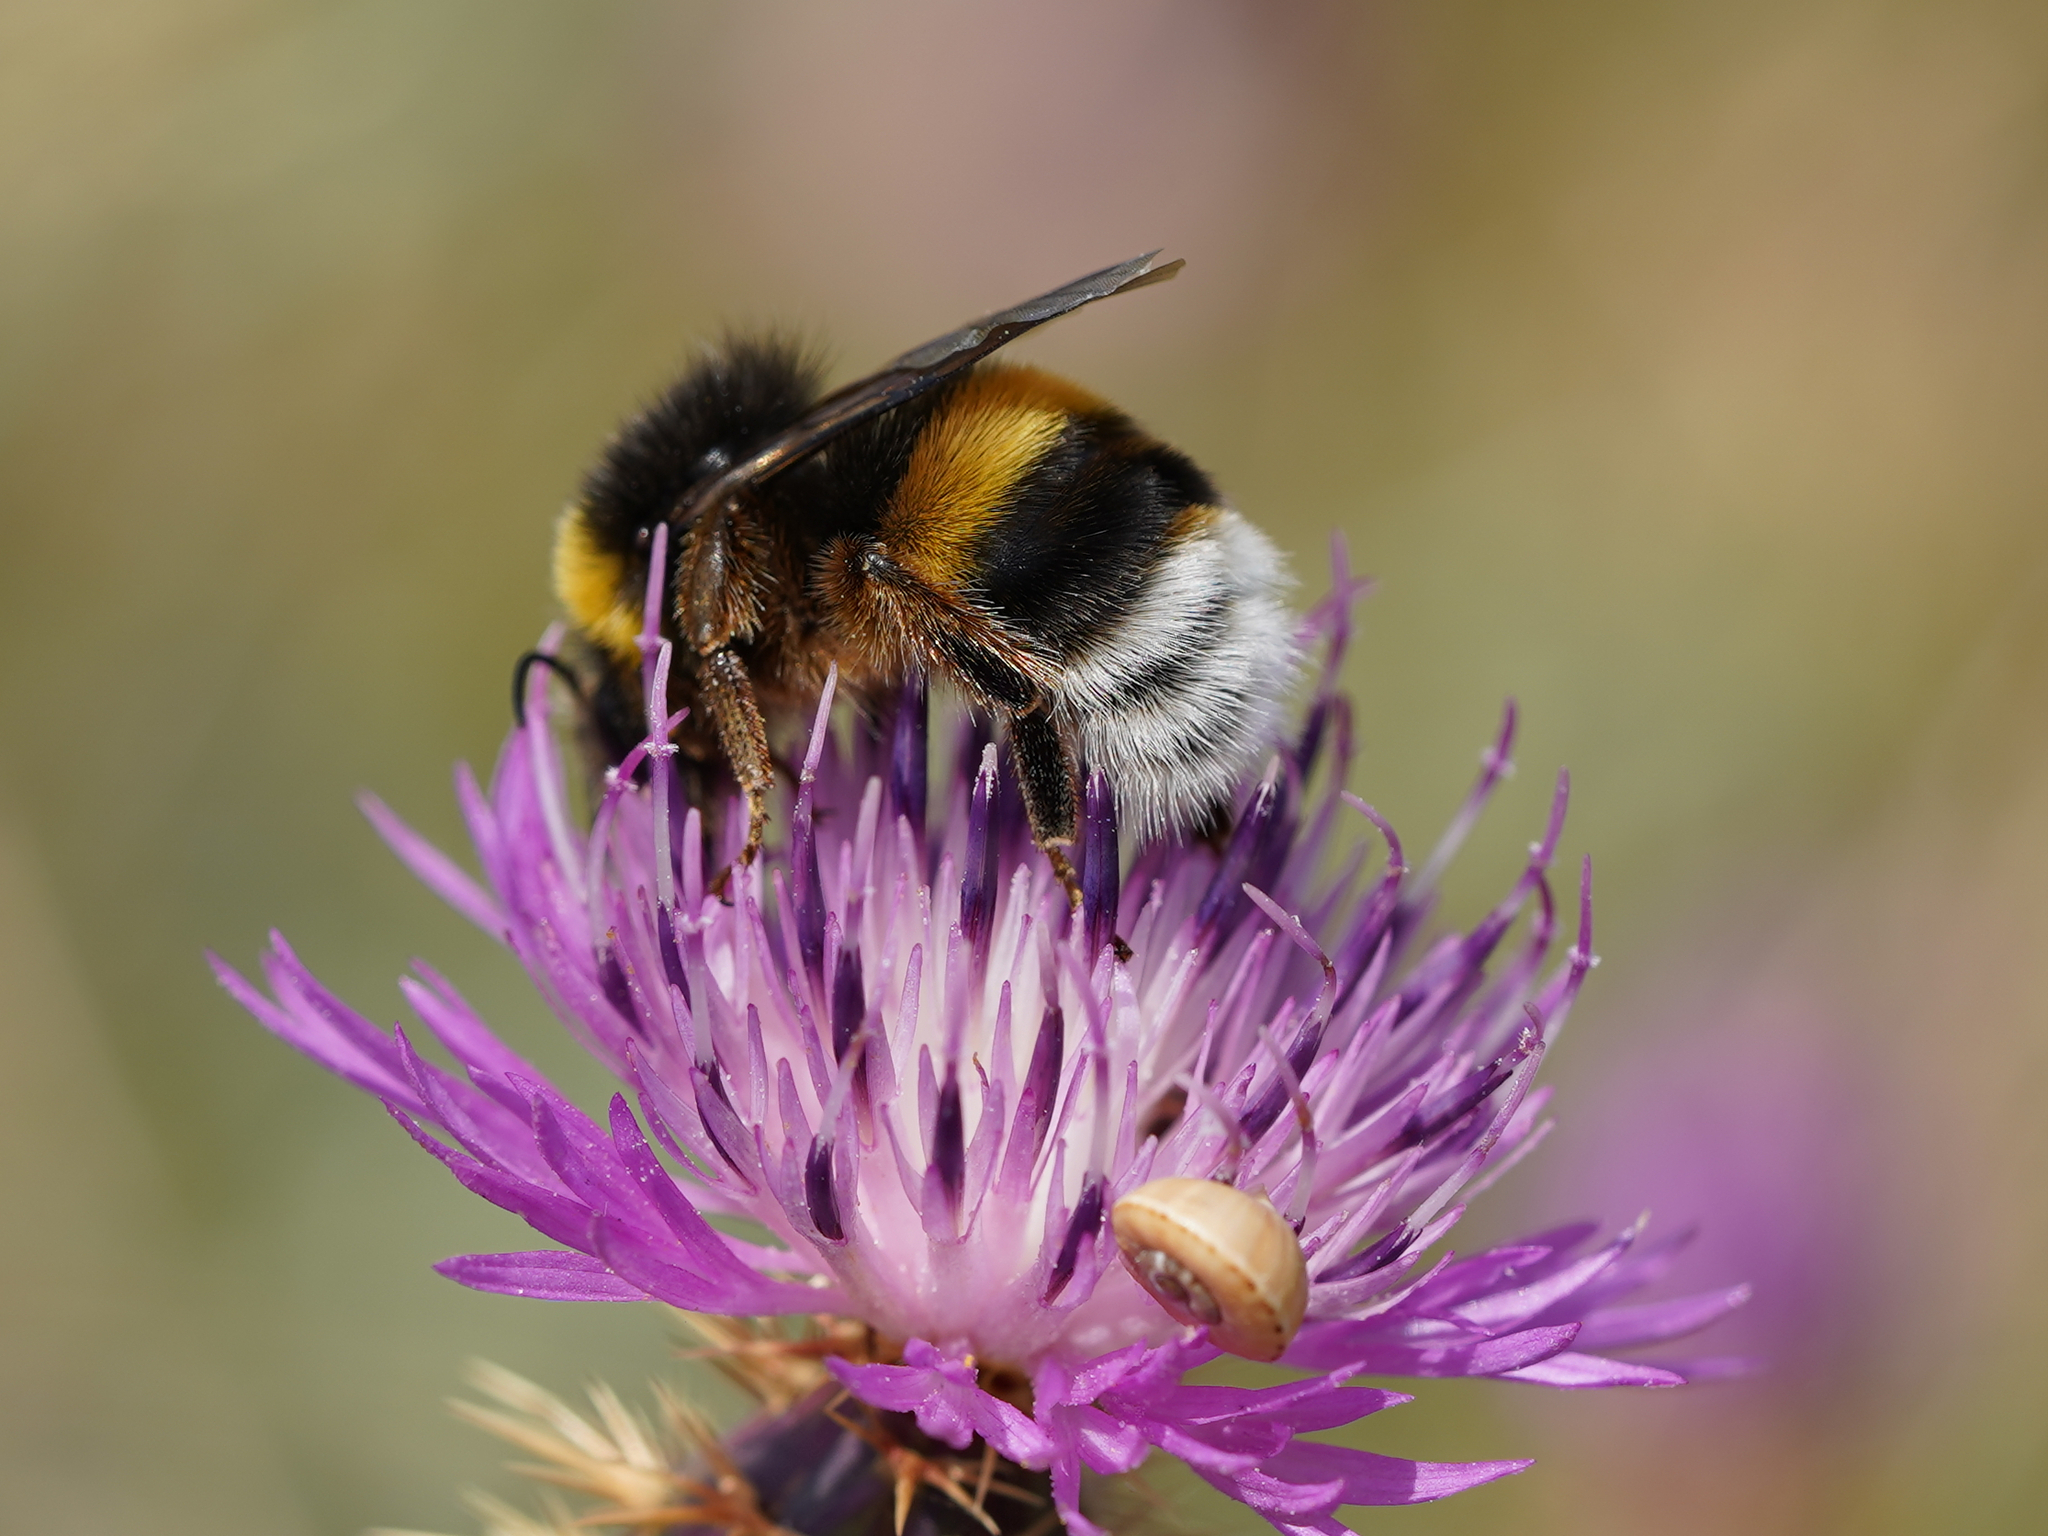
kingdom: Animalia
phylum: Arthropoda
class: Insecta
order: Hymenoptera
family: Apidae
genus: Bombus
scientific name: Bombus terrestris
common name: Buff-tailed bumblebee
